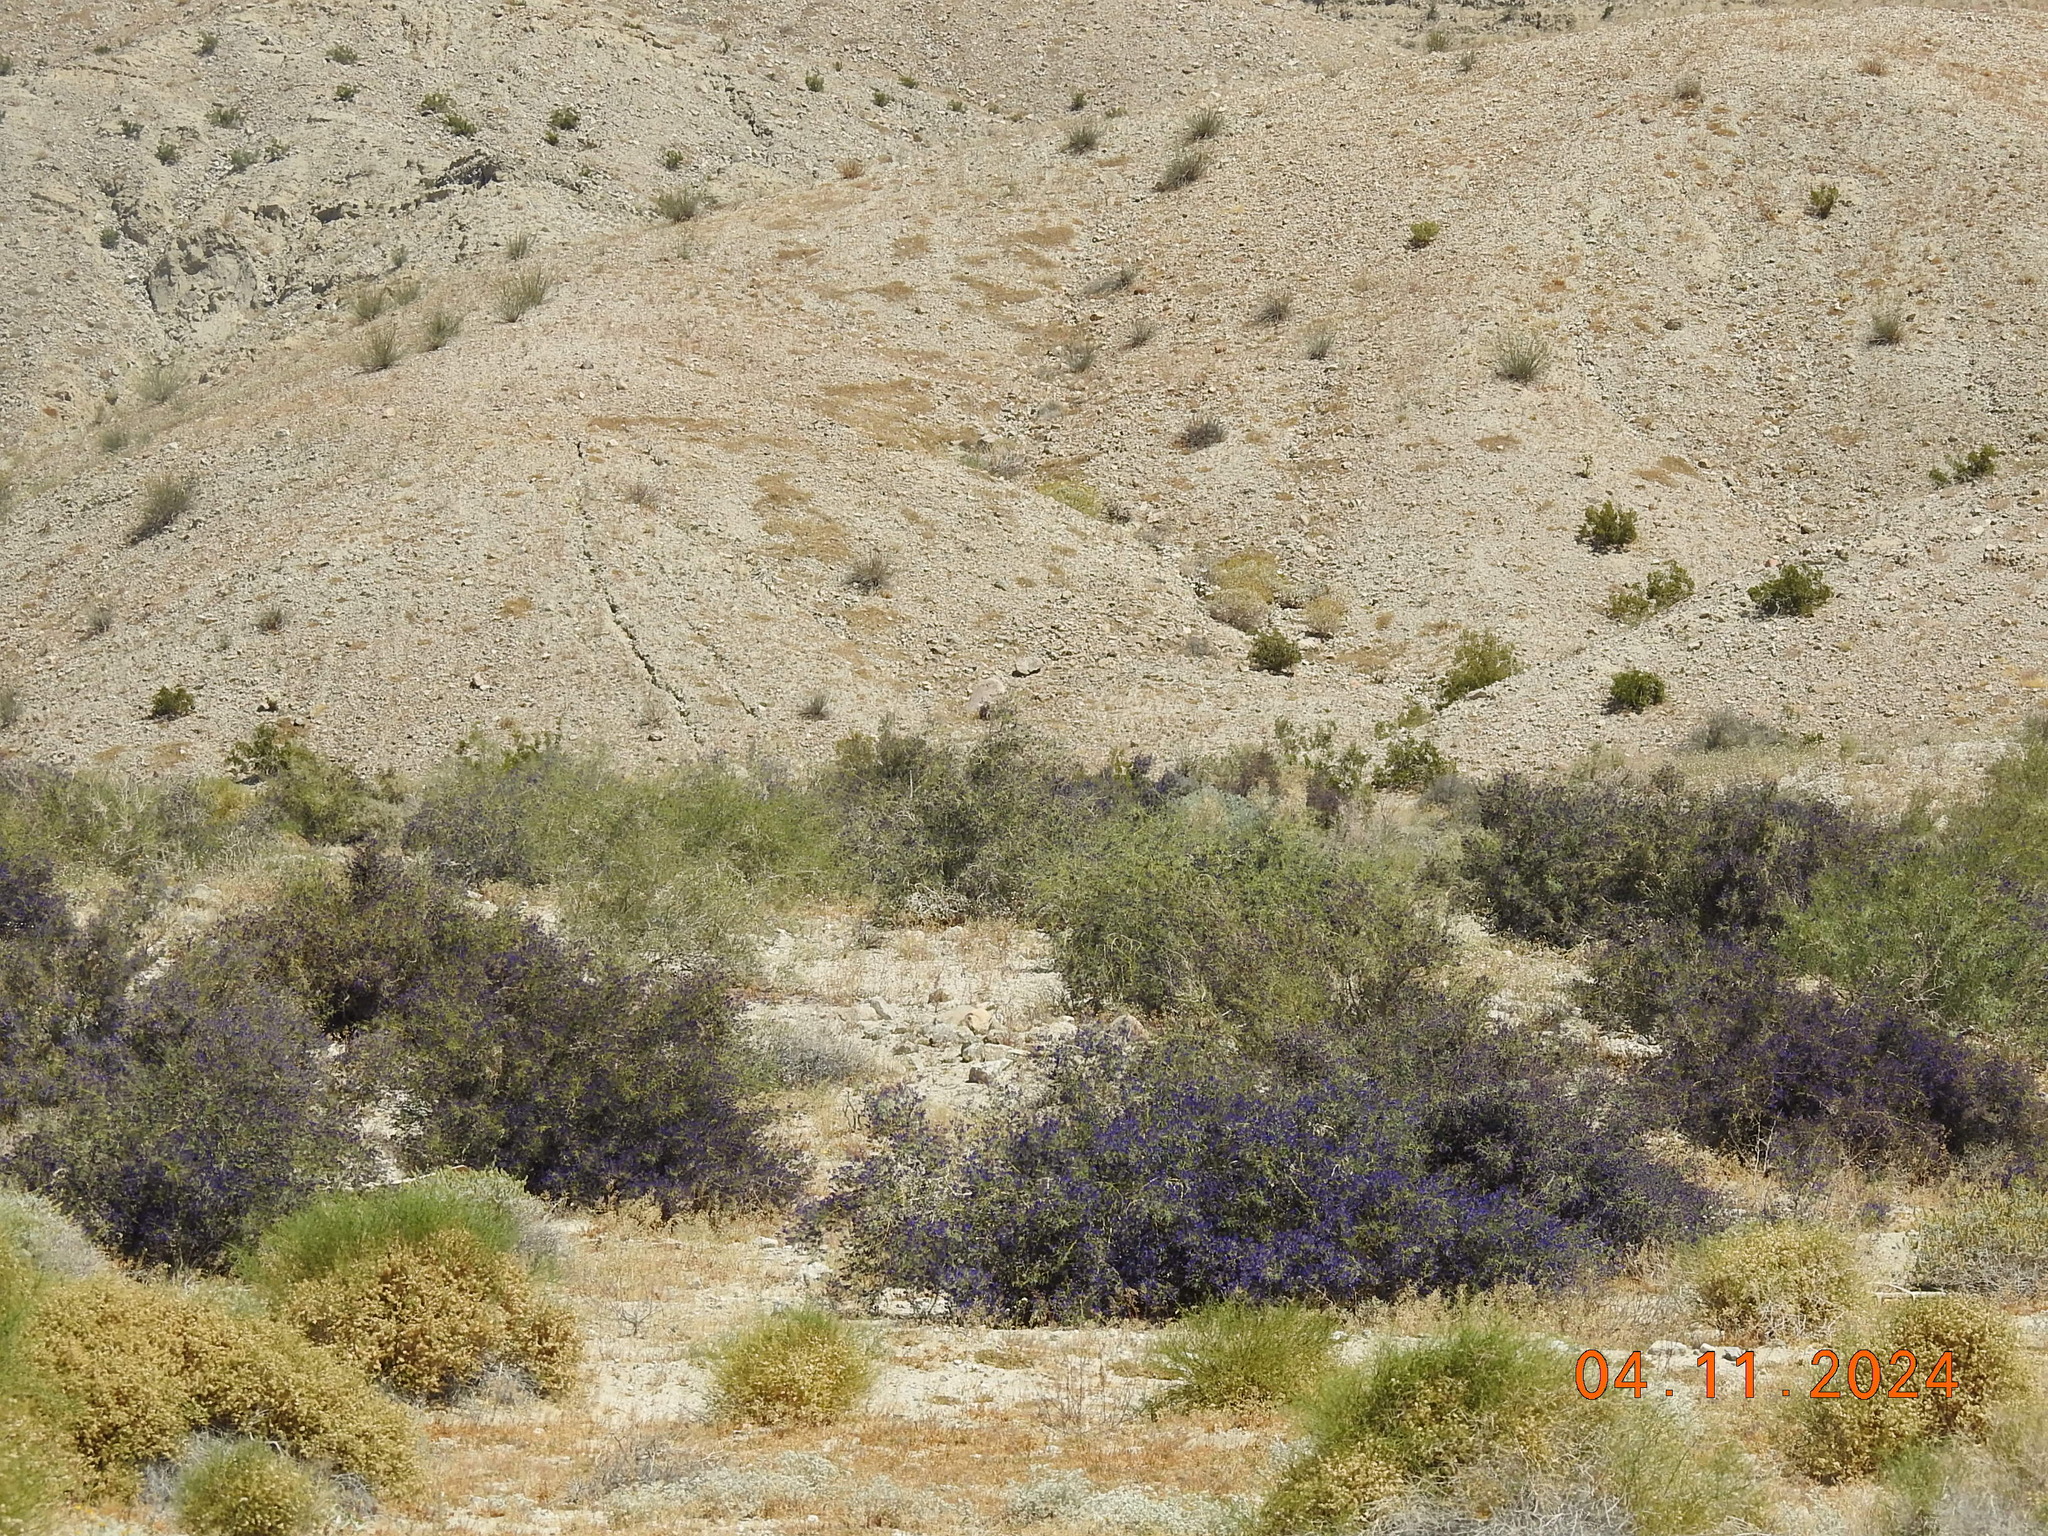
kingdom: Plantae
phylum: Tracheophyta
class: Magnoliopsida
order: Fabales
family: Fabaceae
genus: Psorothamnus
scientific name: Psorothamnus schottii
